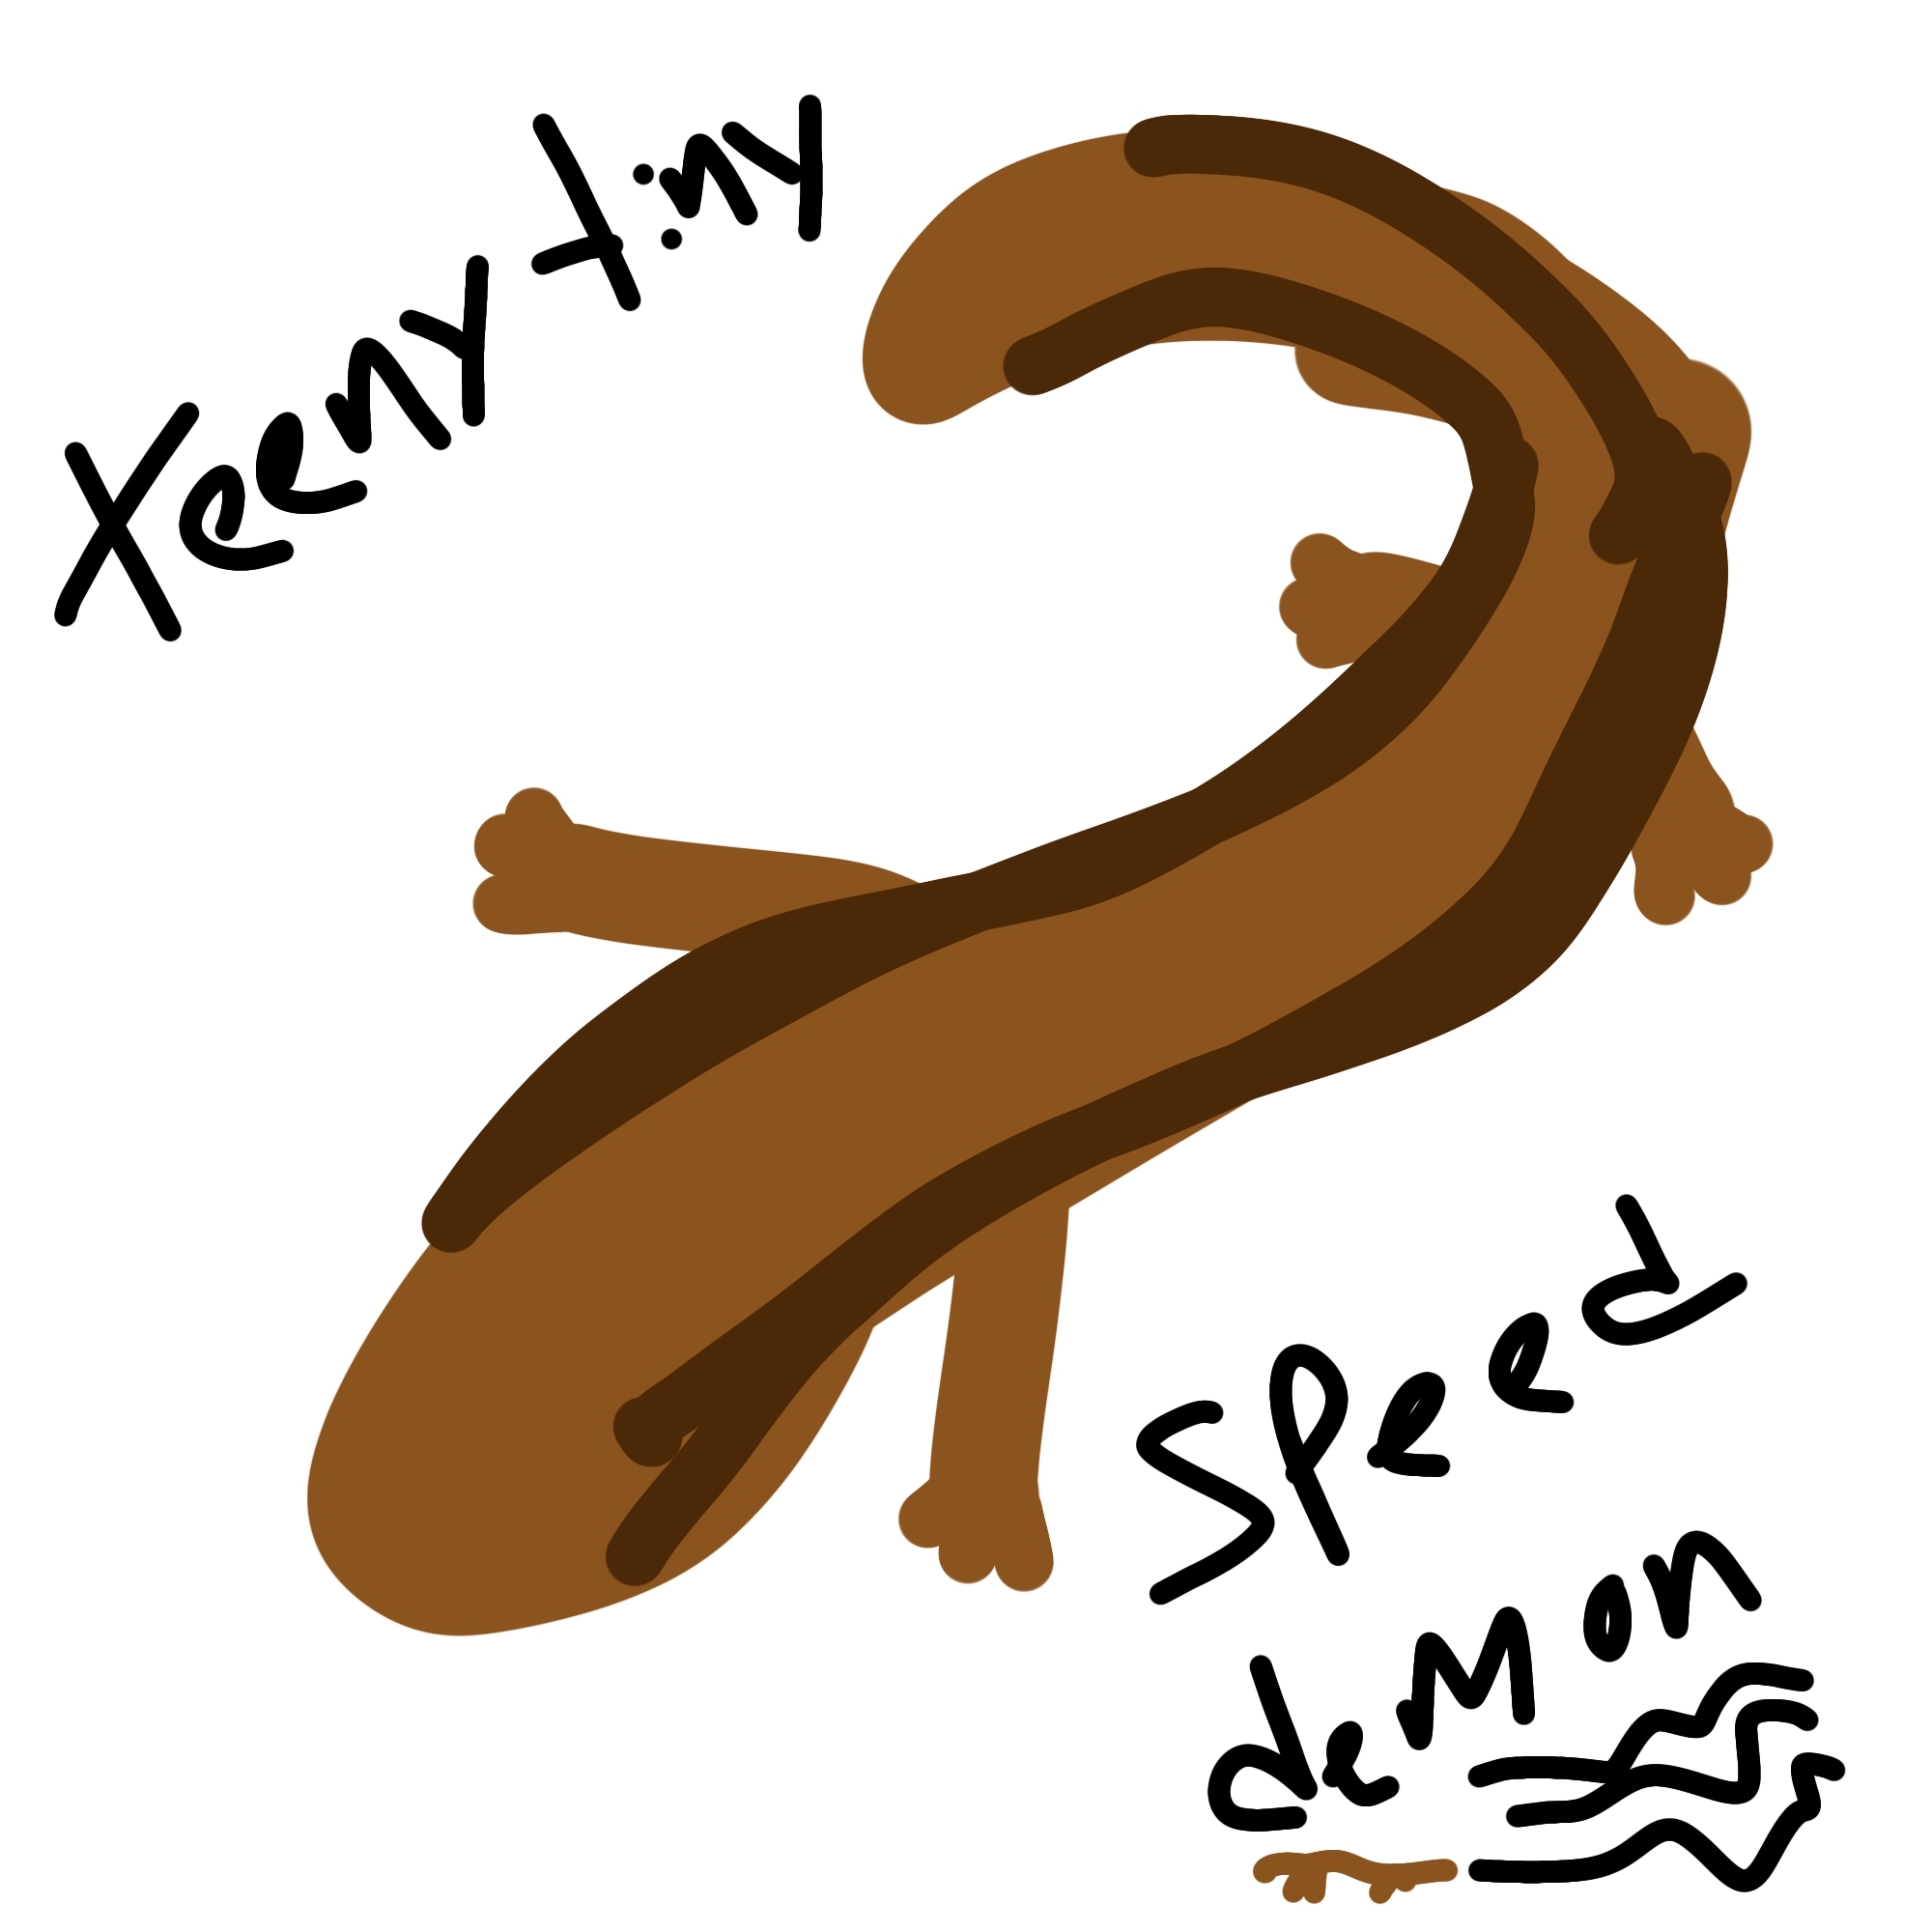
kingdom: Animalia
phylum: Chordata
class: Squamata
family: Scincidae
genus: Scincella
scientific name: Scincella lateralis
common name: Ground skink
